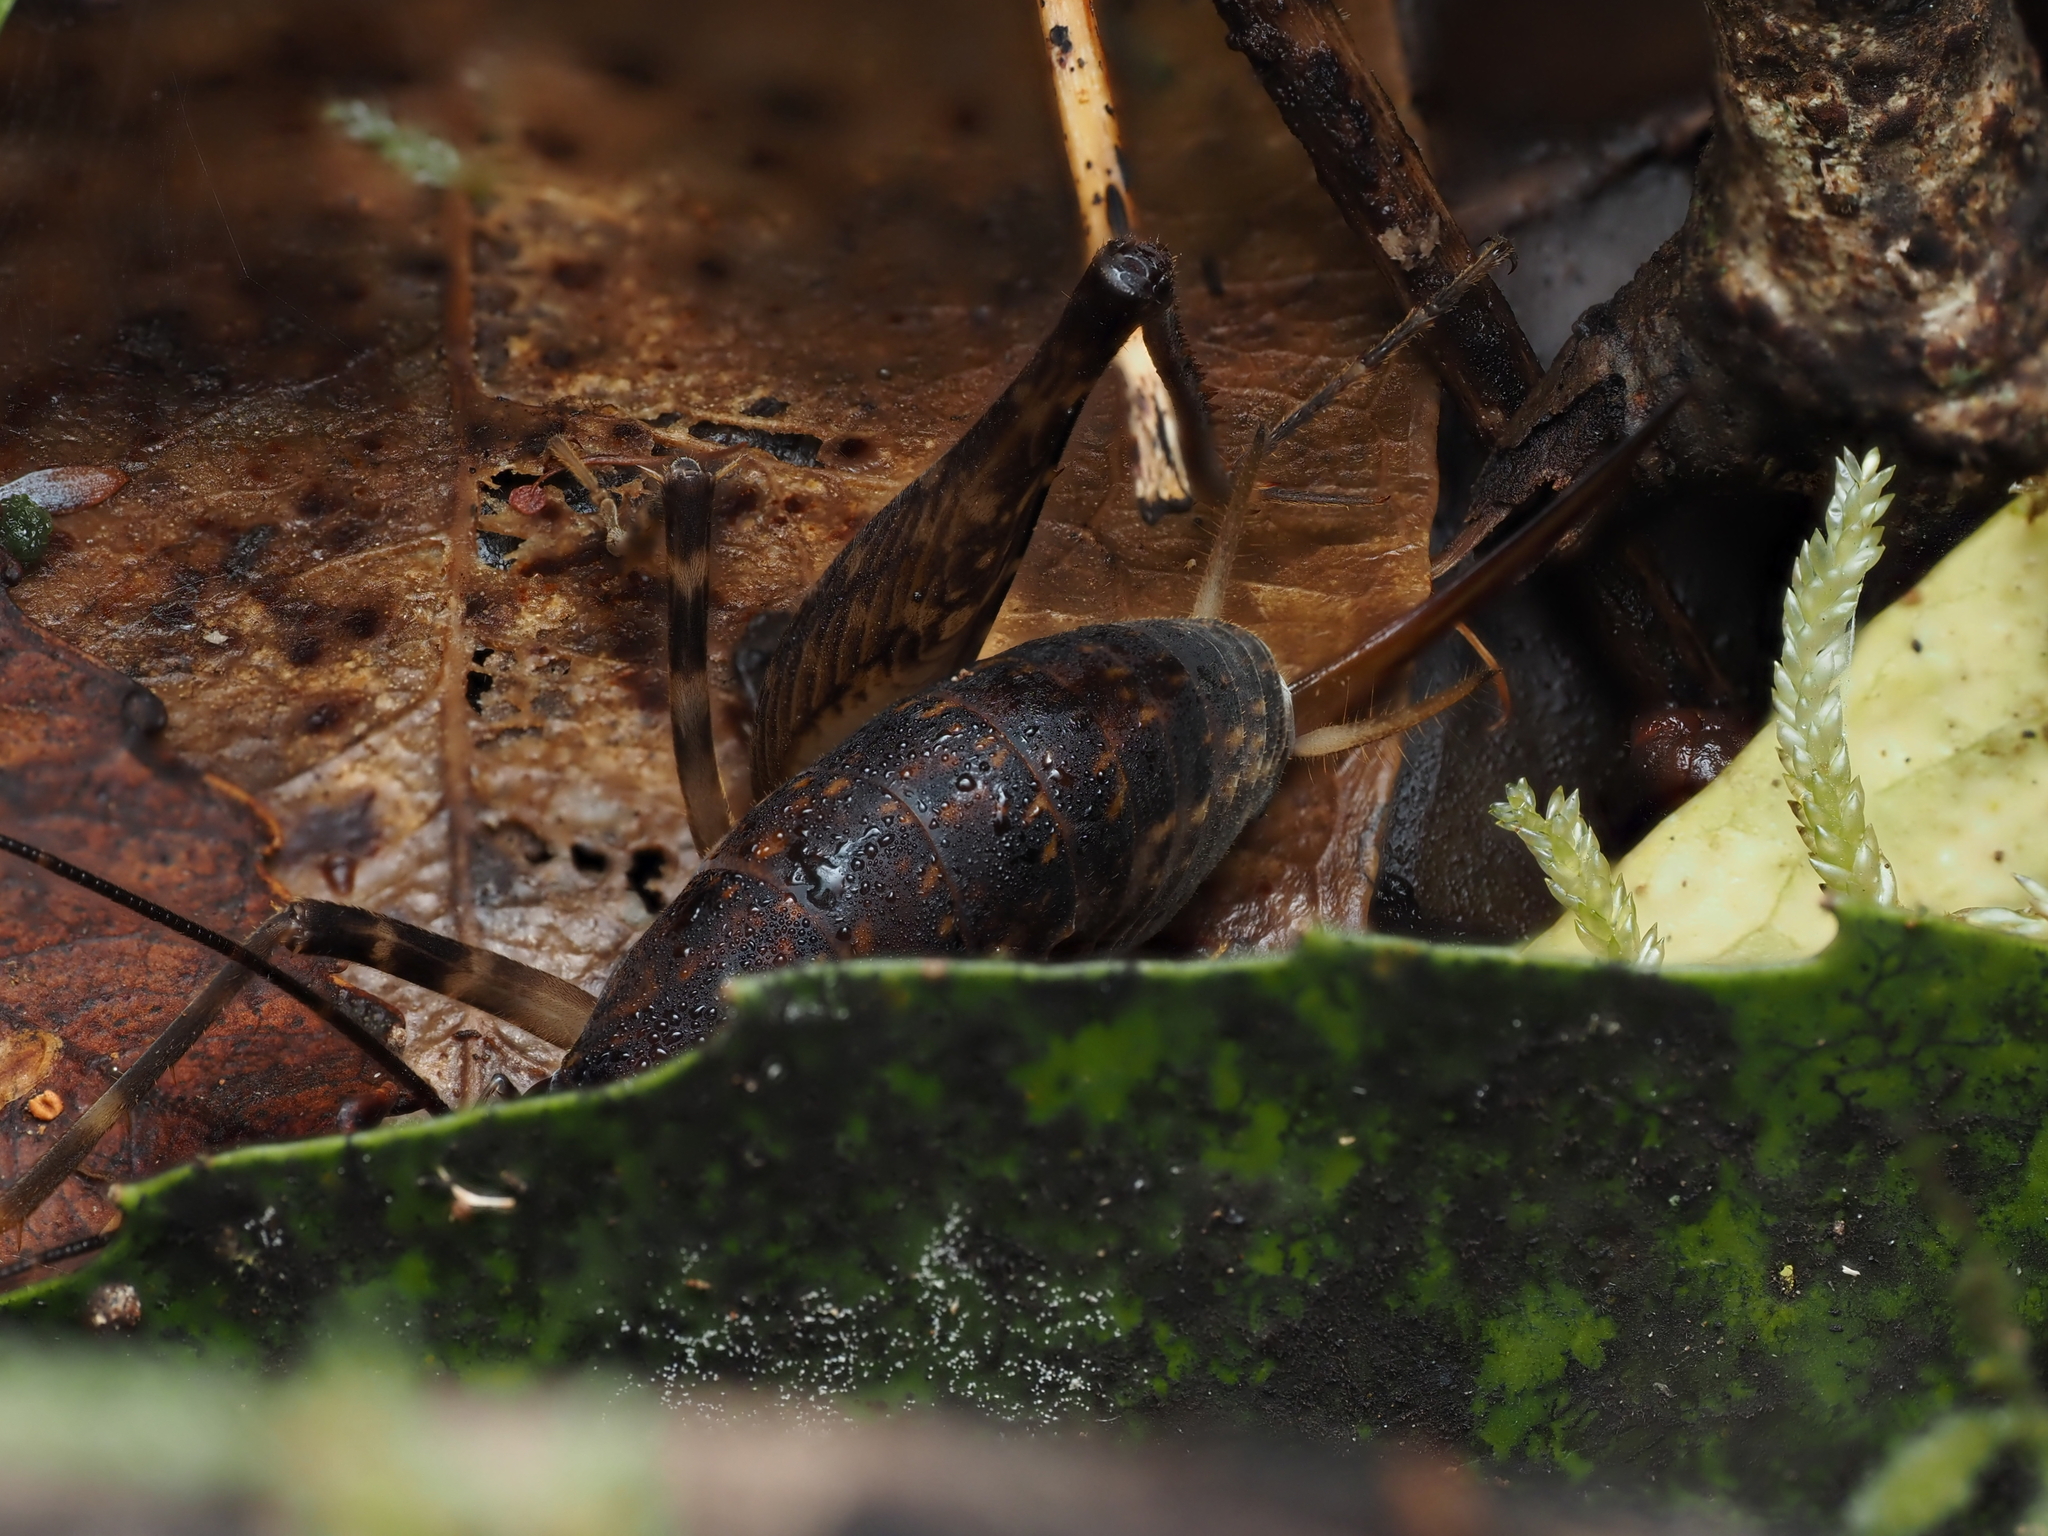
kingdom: Animalia
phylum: Arthropoda
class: Insecta
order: Orthoptera
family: Rhaphidophoridae
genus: Miotopus
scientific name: Miotopus diversus
